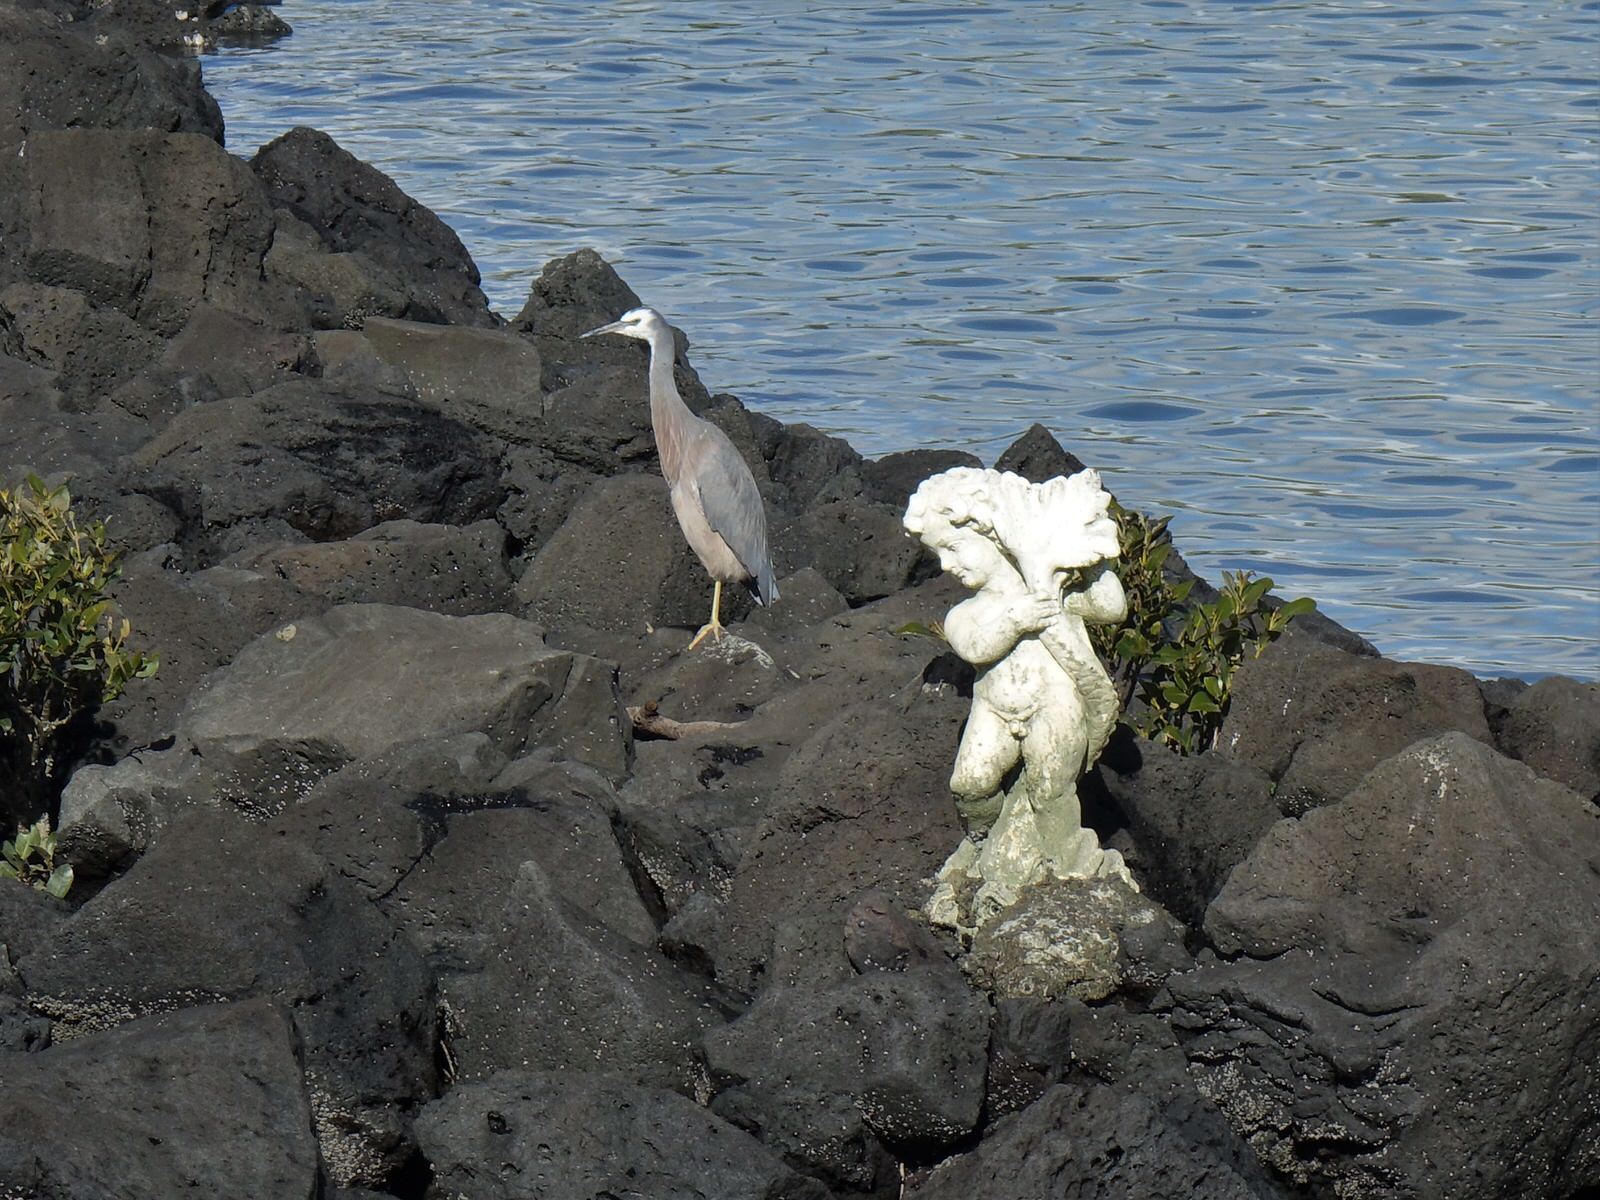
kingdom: Animalia
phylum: Chordata
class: Aves
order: Pelecaniformes
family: Ardeidae
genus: Egretta
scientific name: Egretta novaehollandiae
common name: White-faced heron
